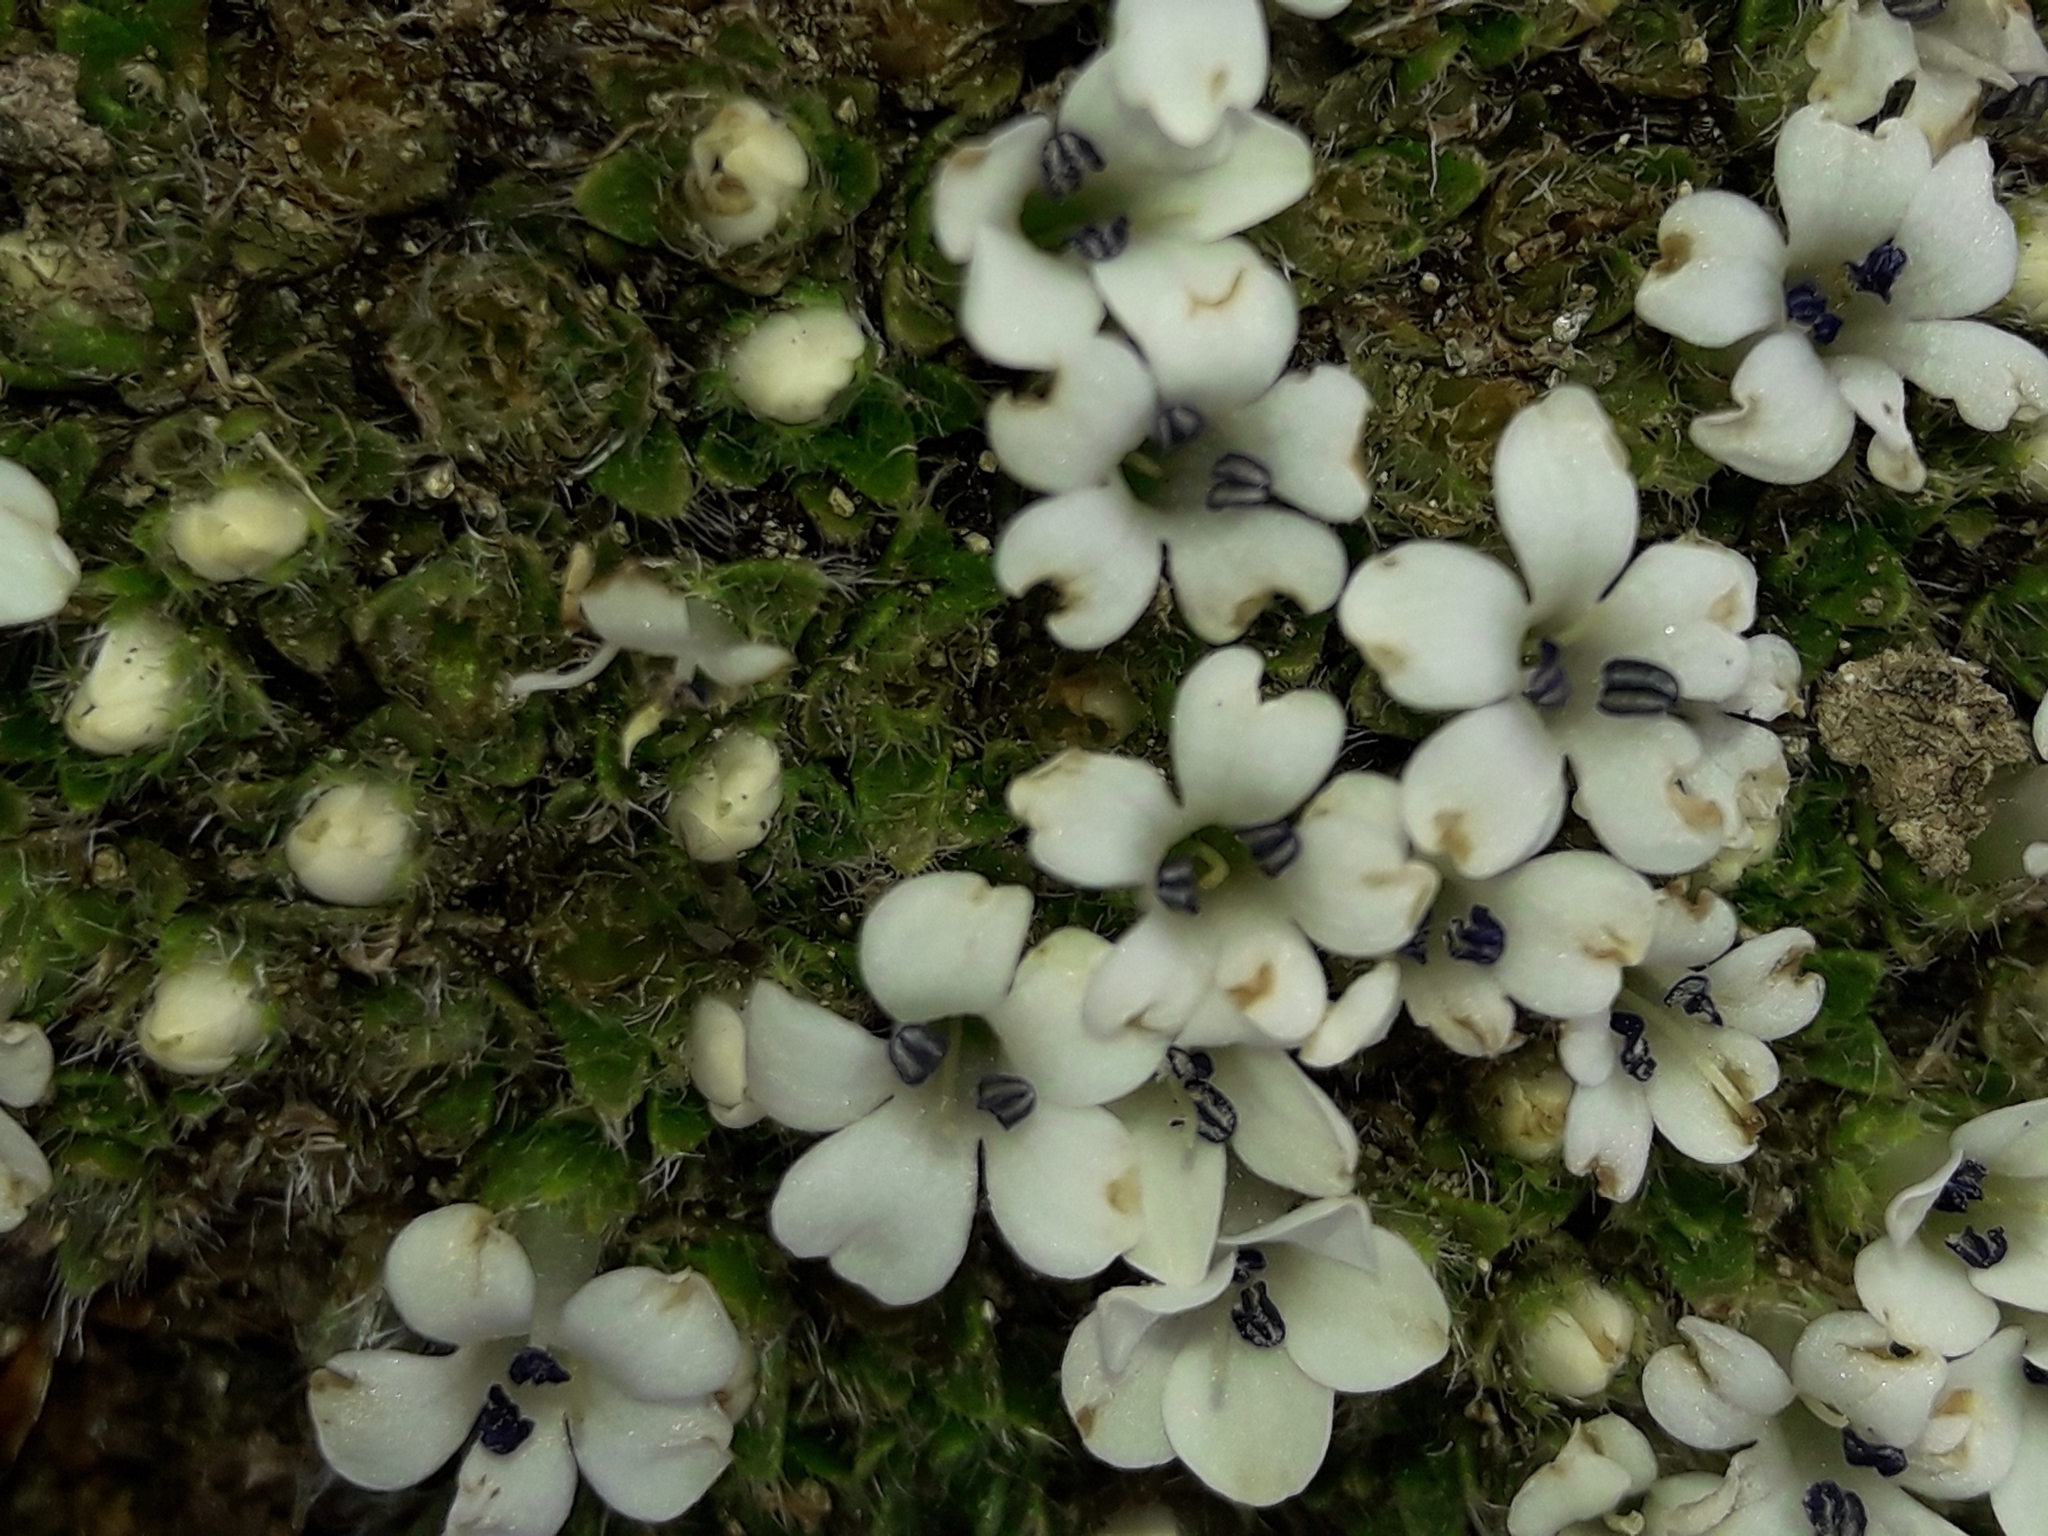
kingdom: Plantae
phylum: Tracheophyta
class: Magnoliopsida
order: Lamiales
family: Plantaginaceae
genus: Veronica
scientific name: Veronica pulvinaris
